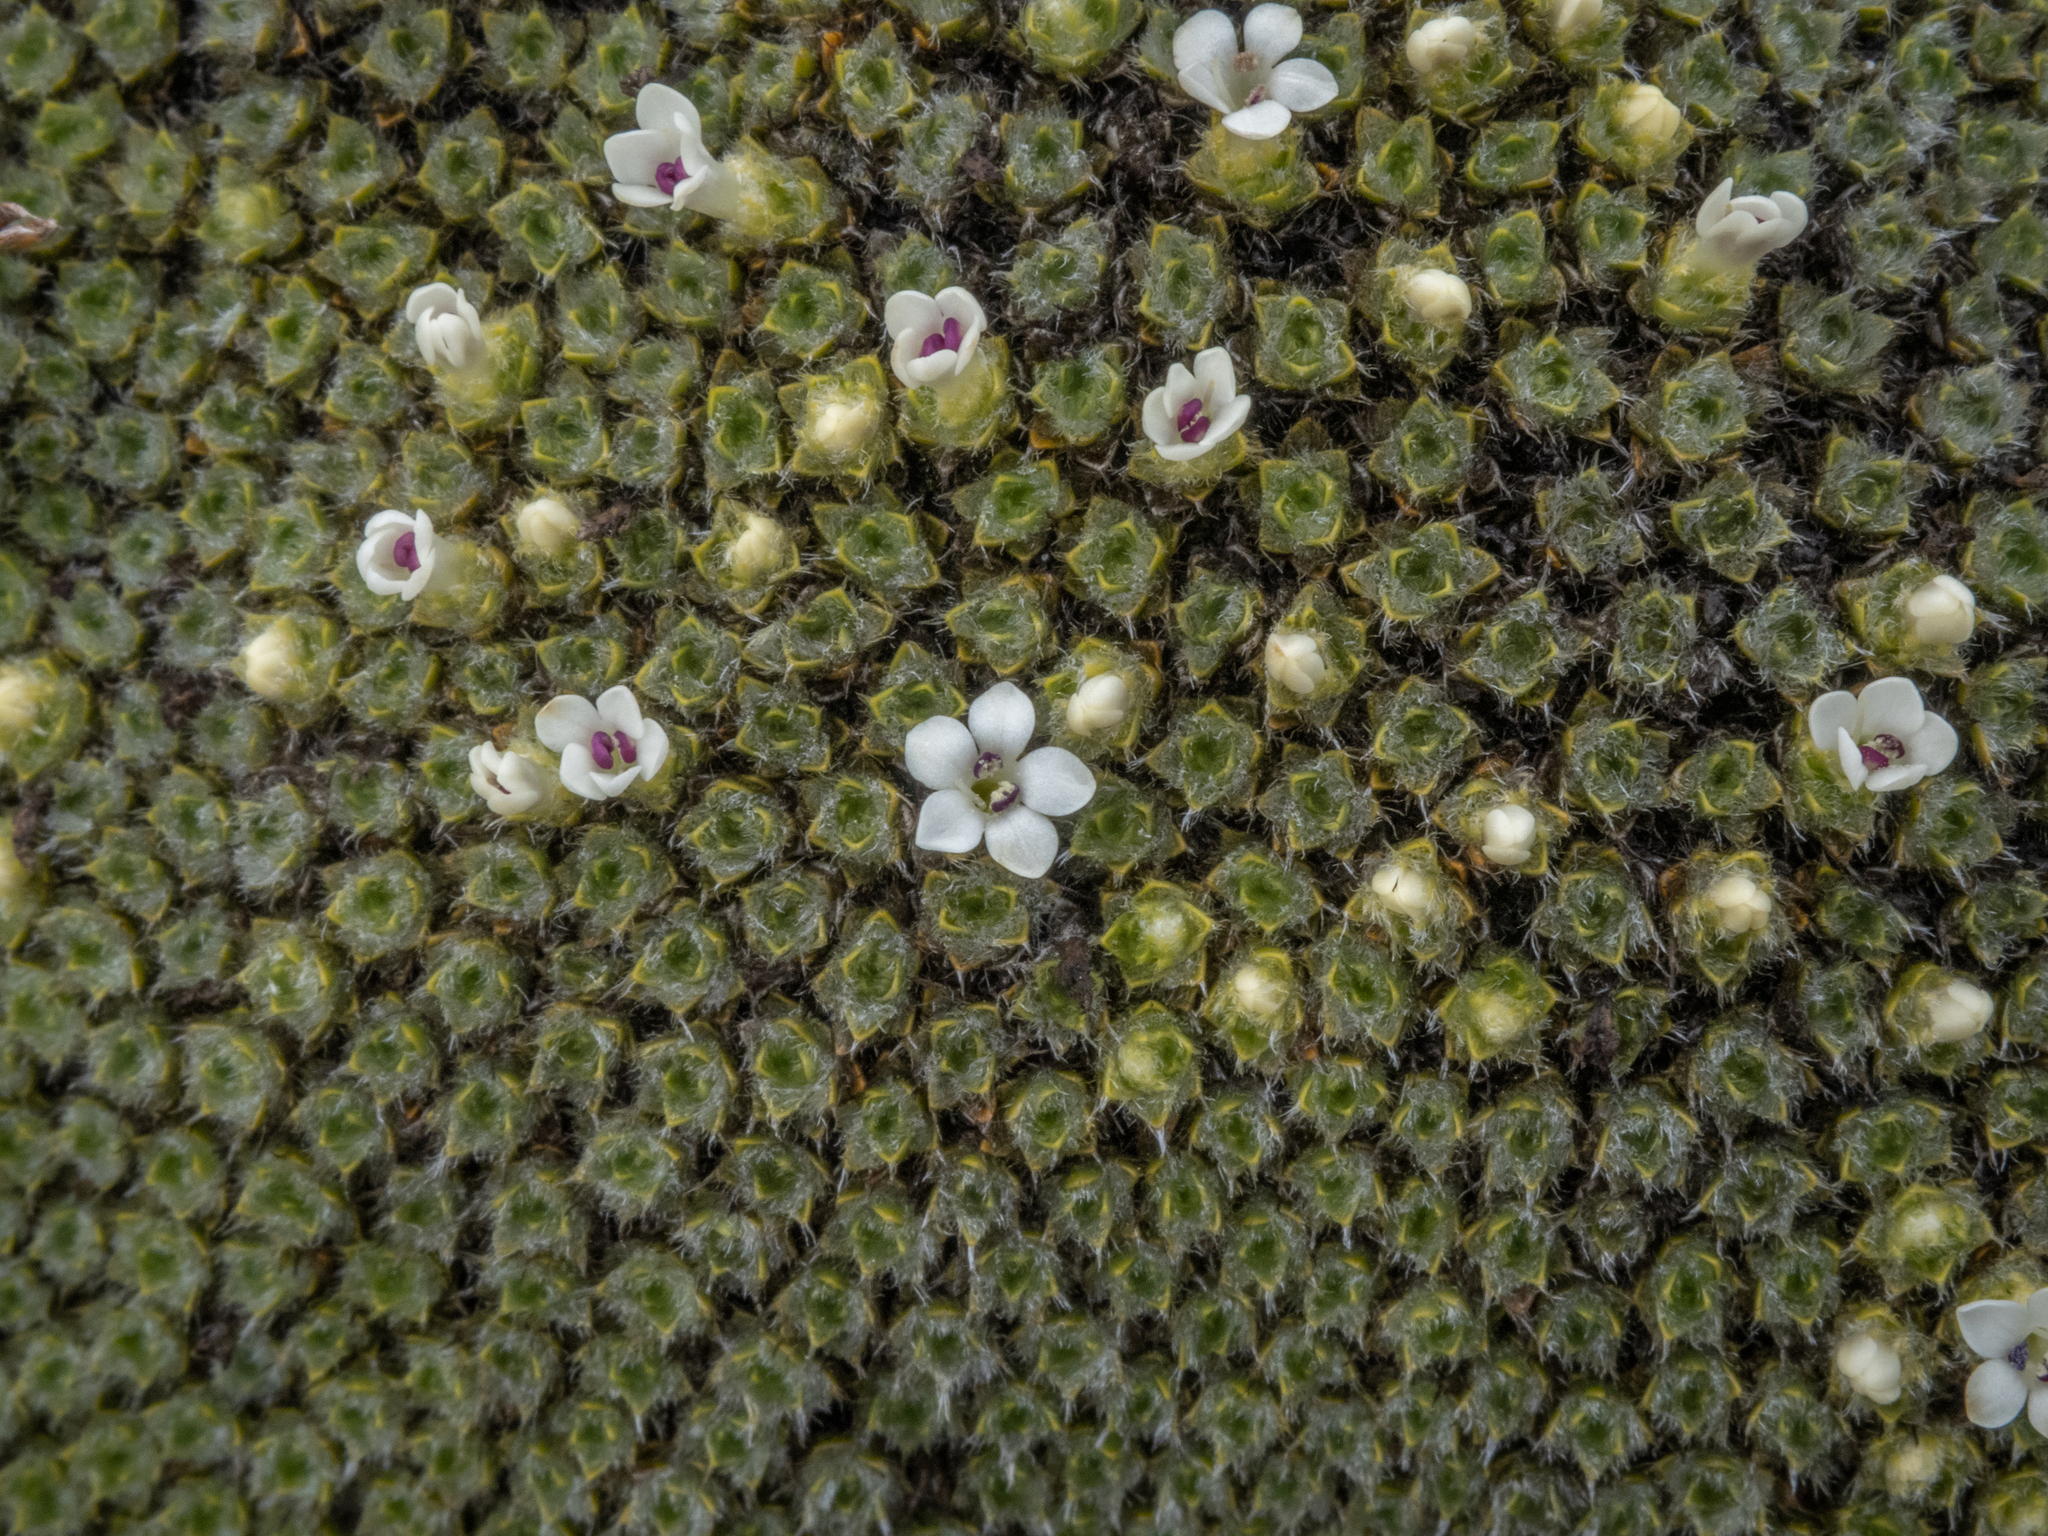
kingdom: Plantae
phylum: Tracheophyta
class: Magnoliopsida
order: Lamiales
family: Plantaginaceae
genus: Veronica
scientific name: Veronica thomsonii
